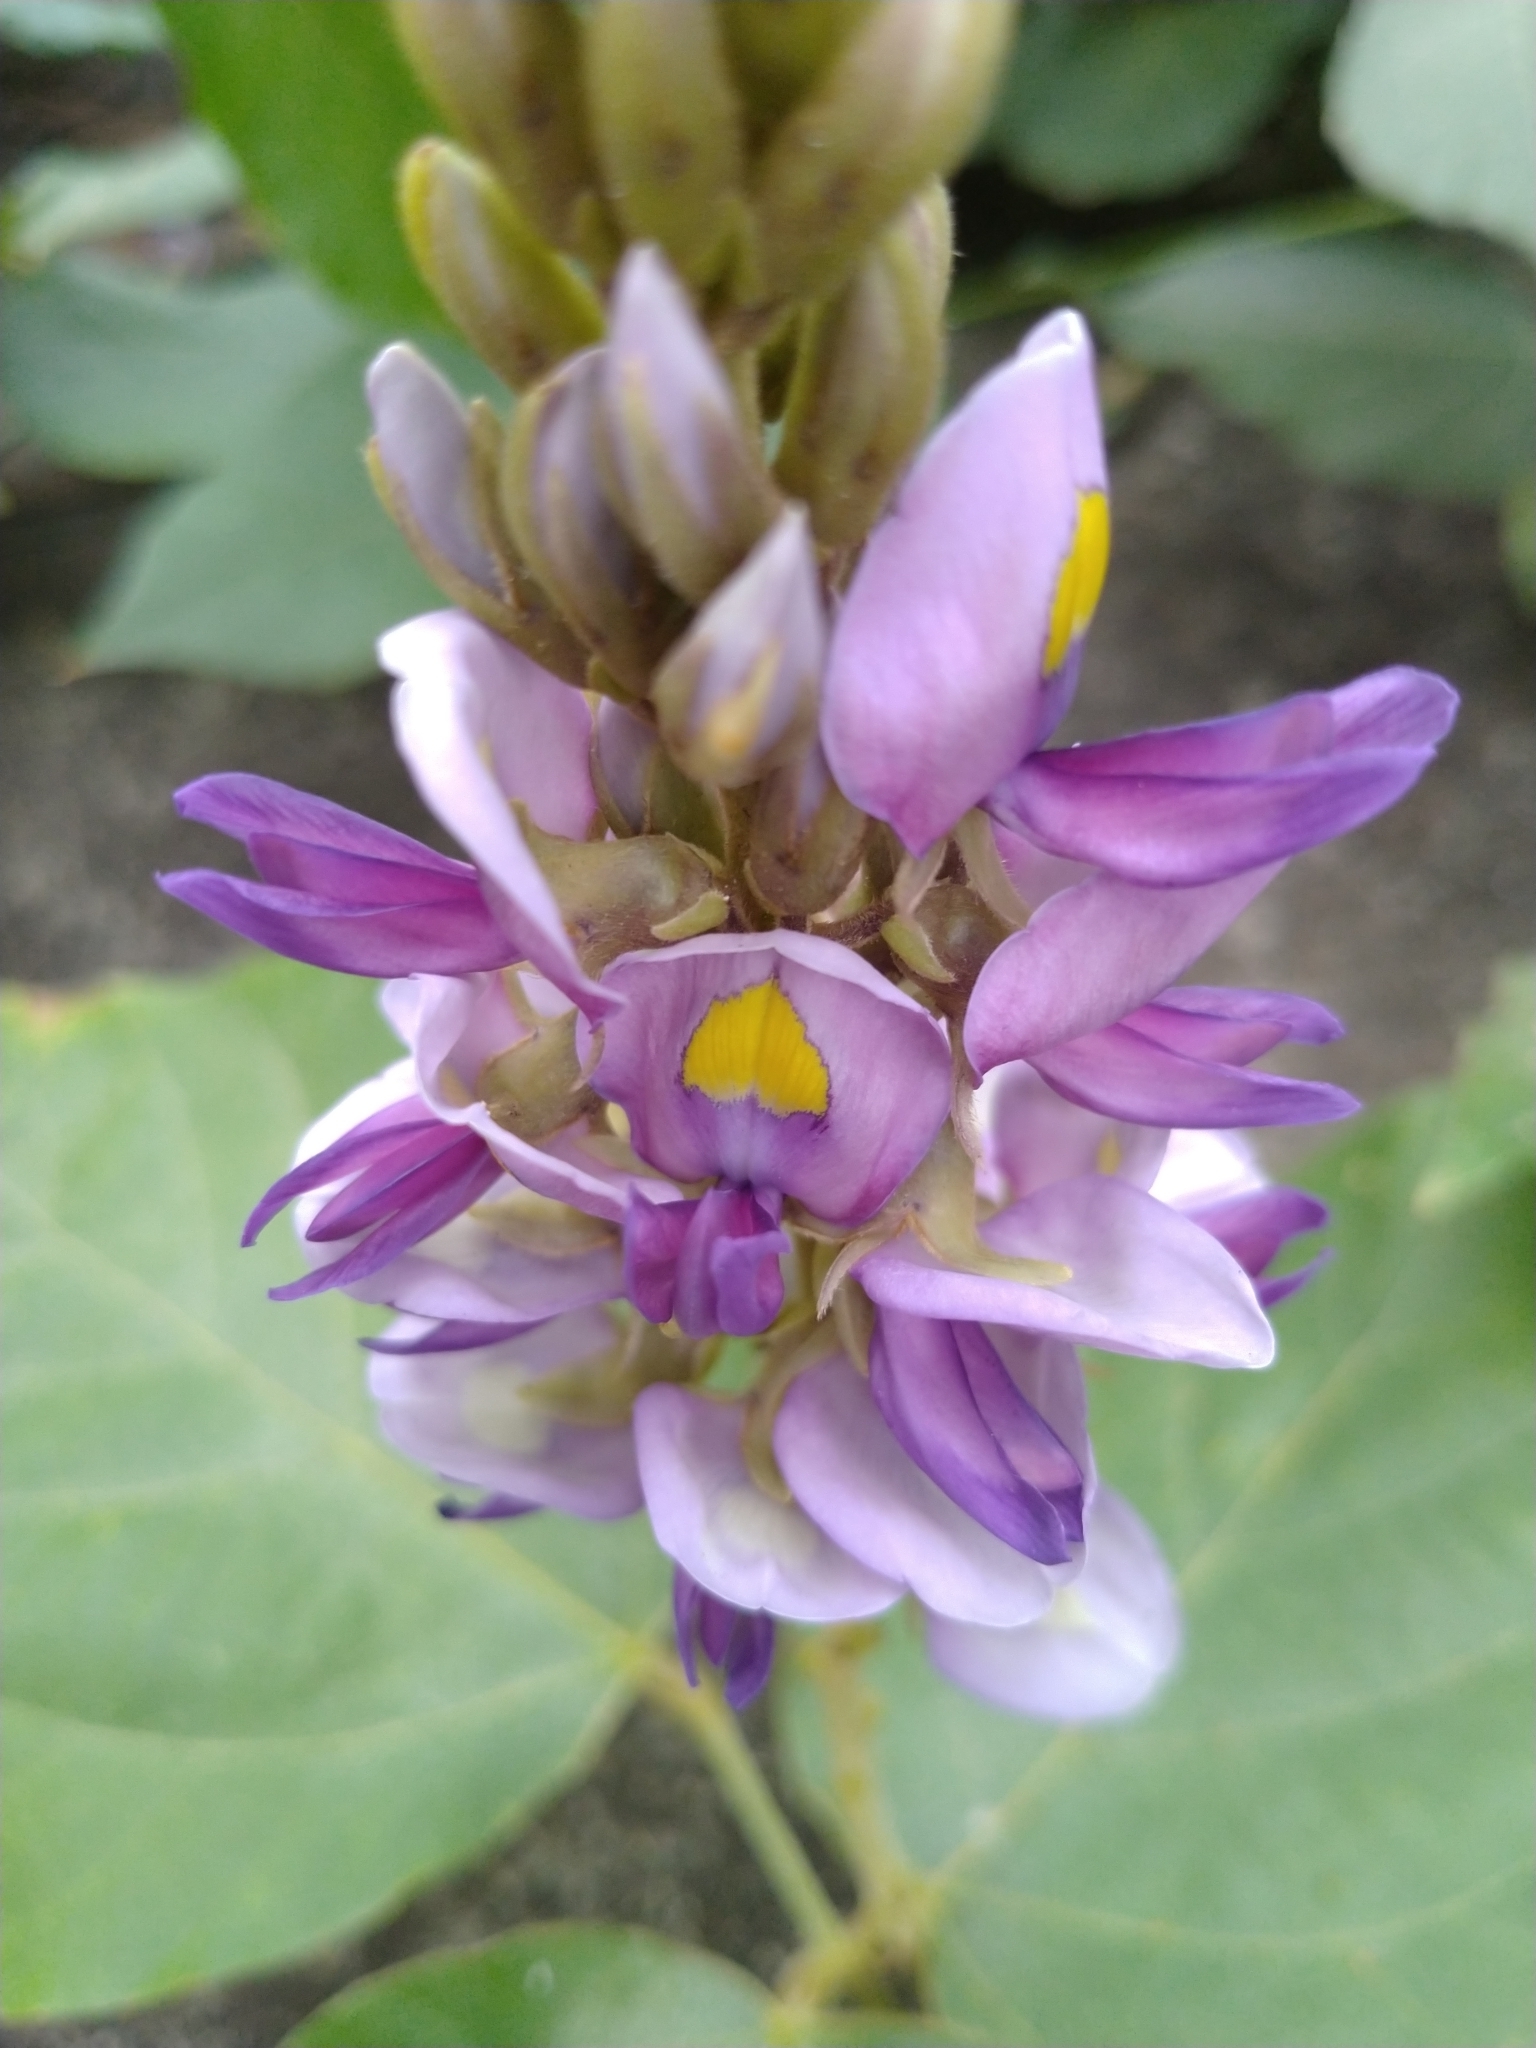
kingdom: Plantae
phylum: Tracheophyta
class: Magnoliopsida
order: Fabales
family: Fabaceae
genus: Pueraria
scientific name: Pueraria montana
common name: Kudzu
